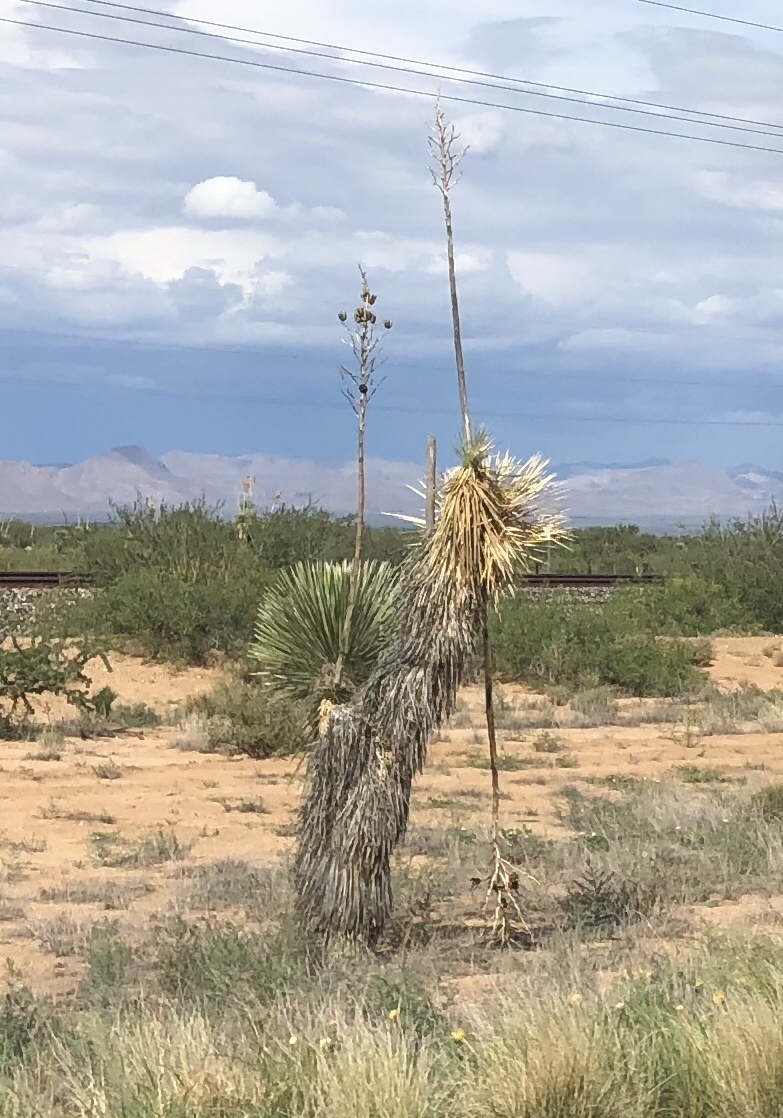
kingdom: Plantae
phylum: Tracheophyta
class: Liliopsida
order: Asparagales
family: Asparagaceae
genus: Yucca
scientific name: Yucca elata
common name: Palmella
